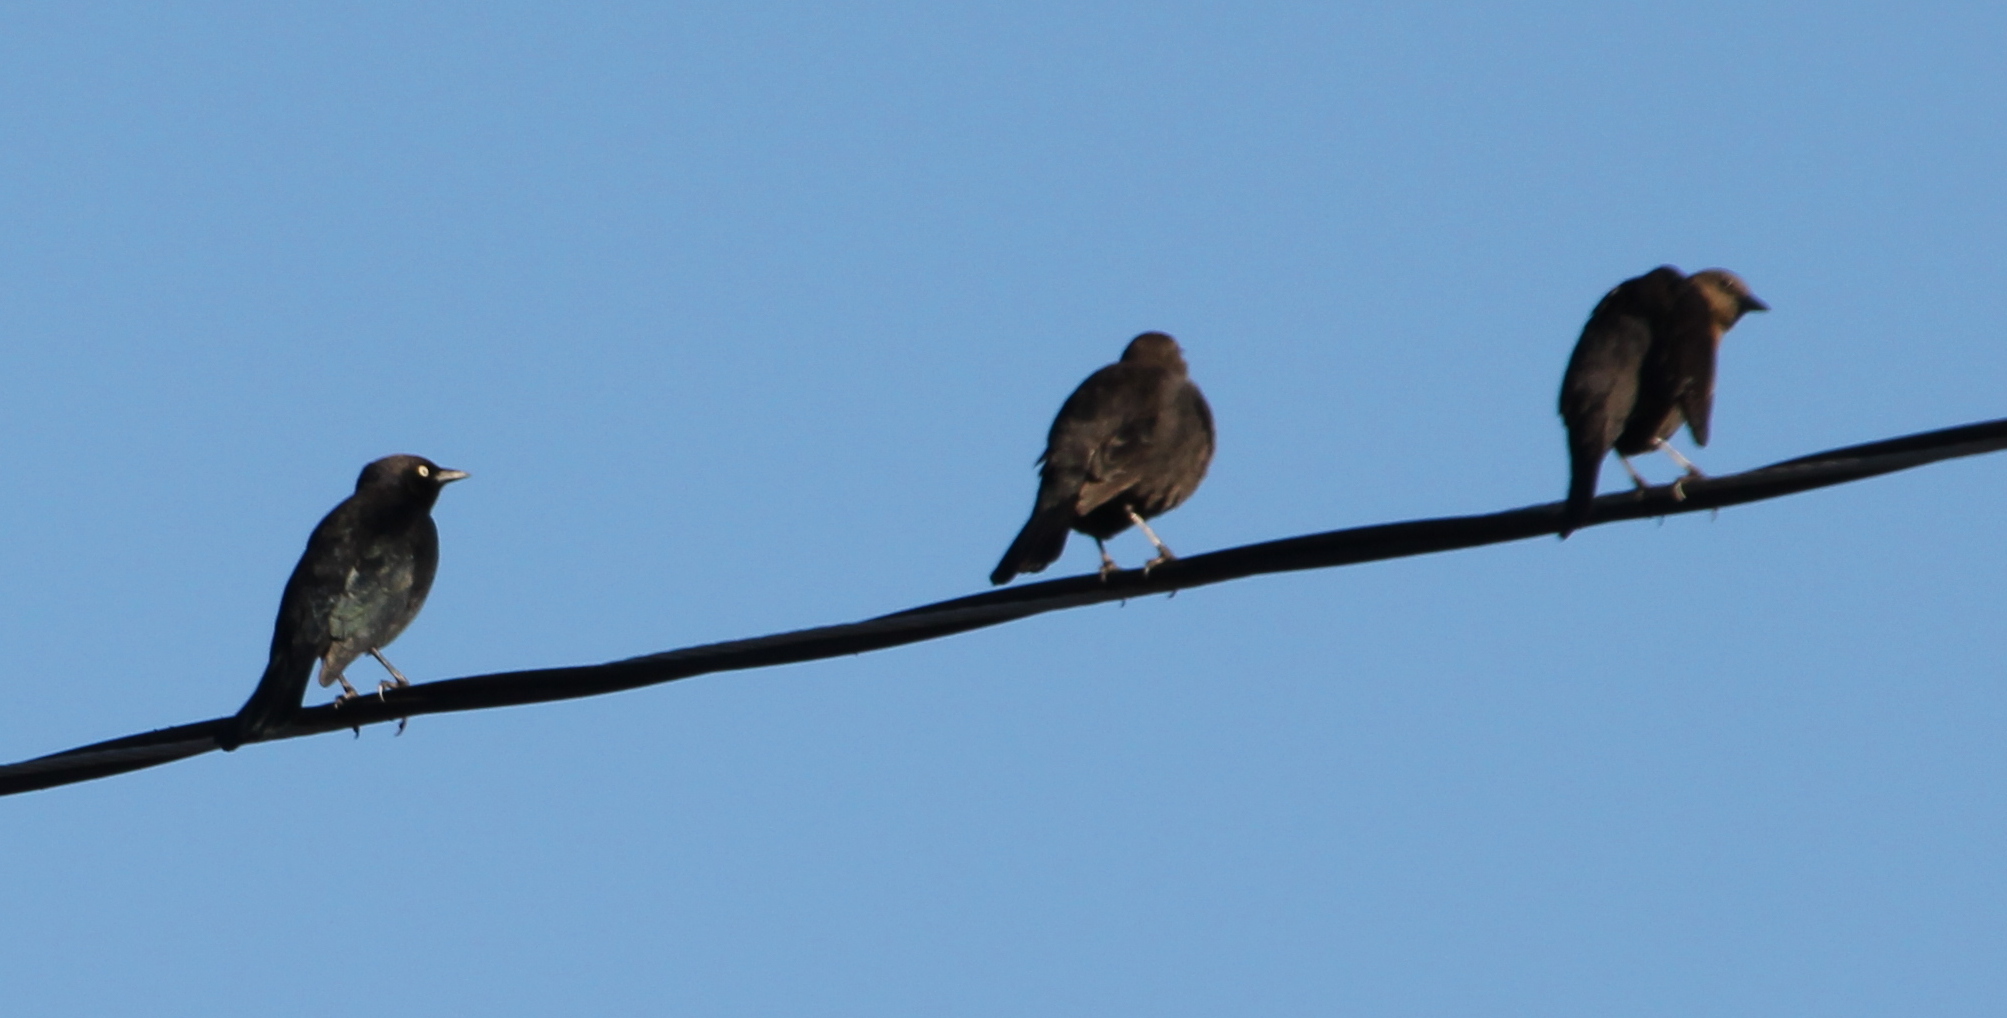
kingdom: Animalia
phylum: Chordata
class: Aves
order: Passeriformes
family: Icteridae
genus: Euphagus
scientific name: Euphagus cyanocephalus
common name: Brewer's blackbird
